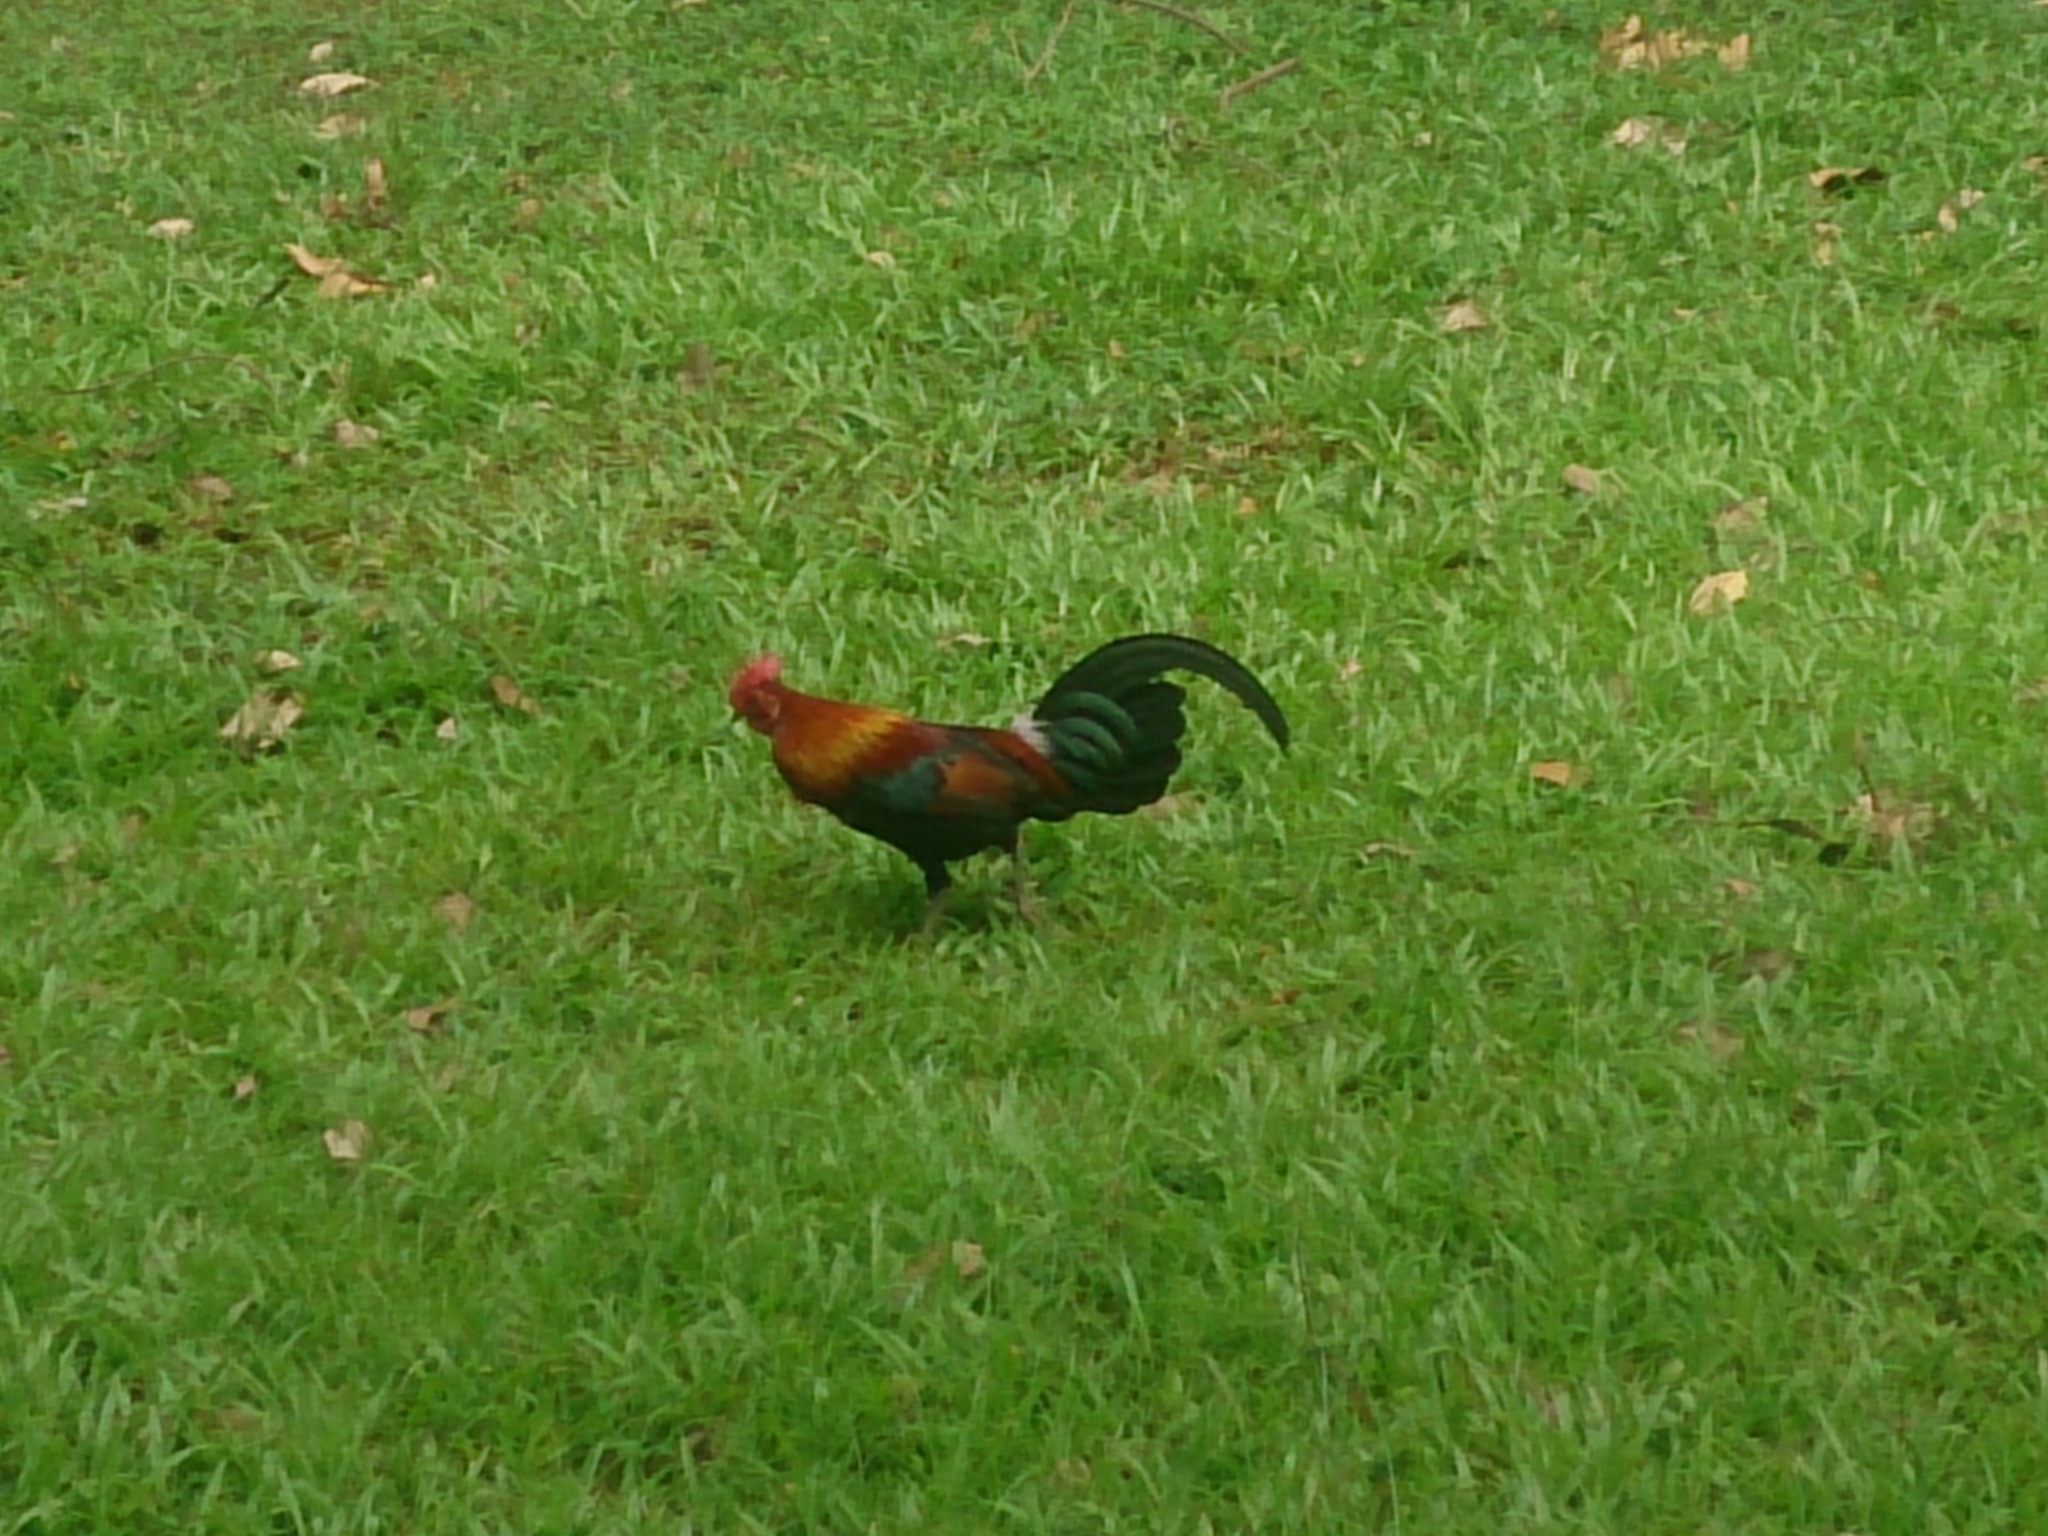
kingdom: Animalia
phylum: Chordata
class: Aves
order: Galliformes
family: Phasianidae
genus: Gallus
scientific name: Gallus gallus
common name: Red junglefowl
